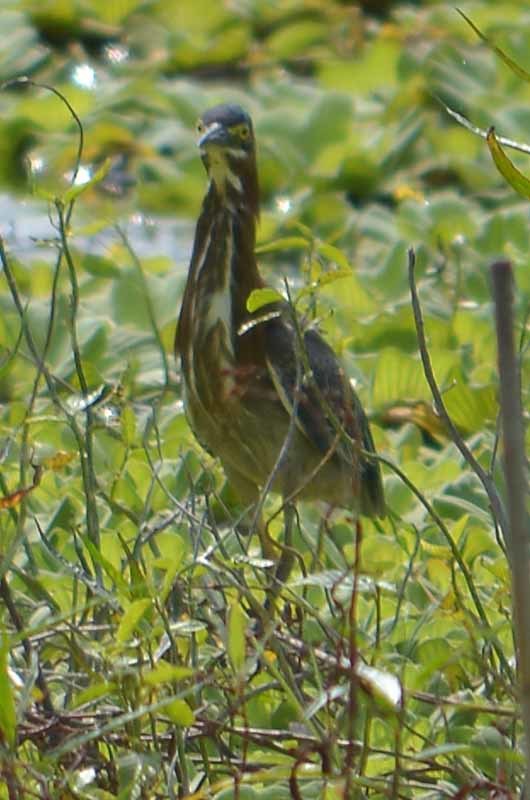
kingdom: Animalia
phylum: Chordata
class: Aves
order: Pelecaniformes
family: Ardeidae
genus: Butorides
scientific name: Butorides virescens
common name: Green heron
